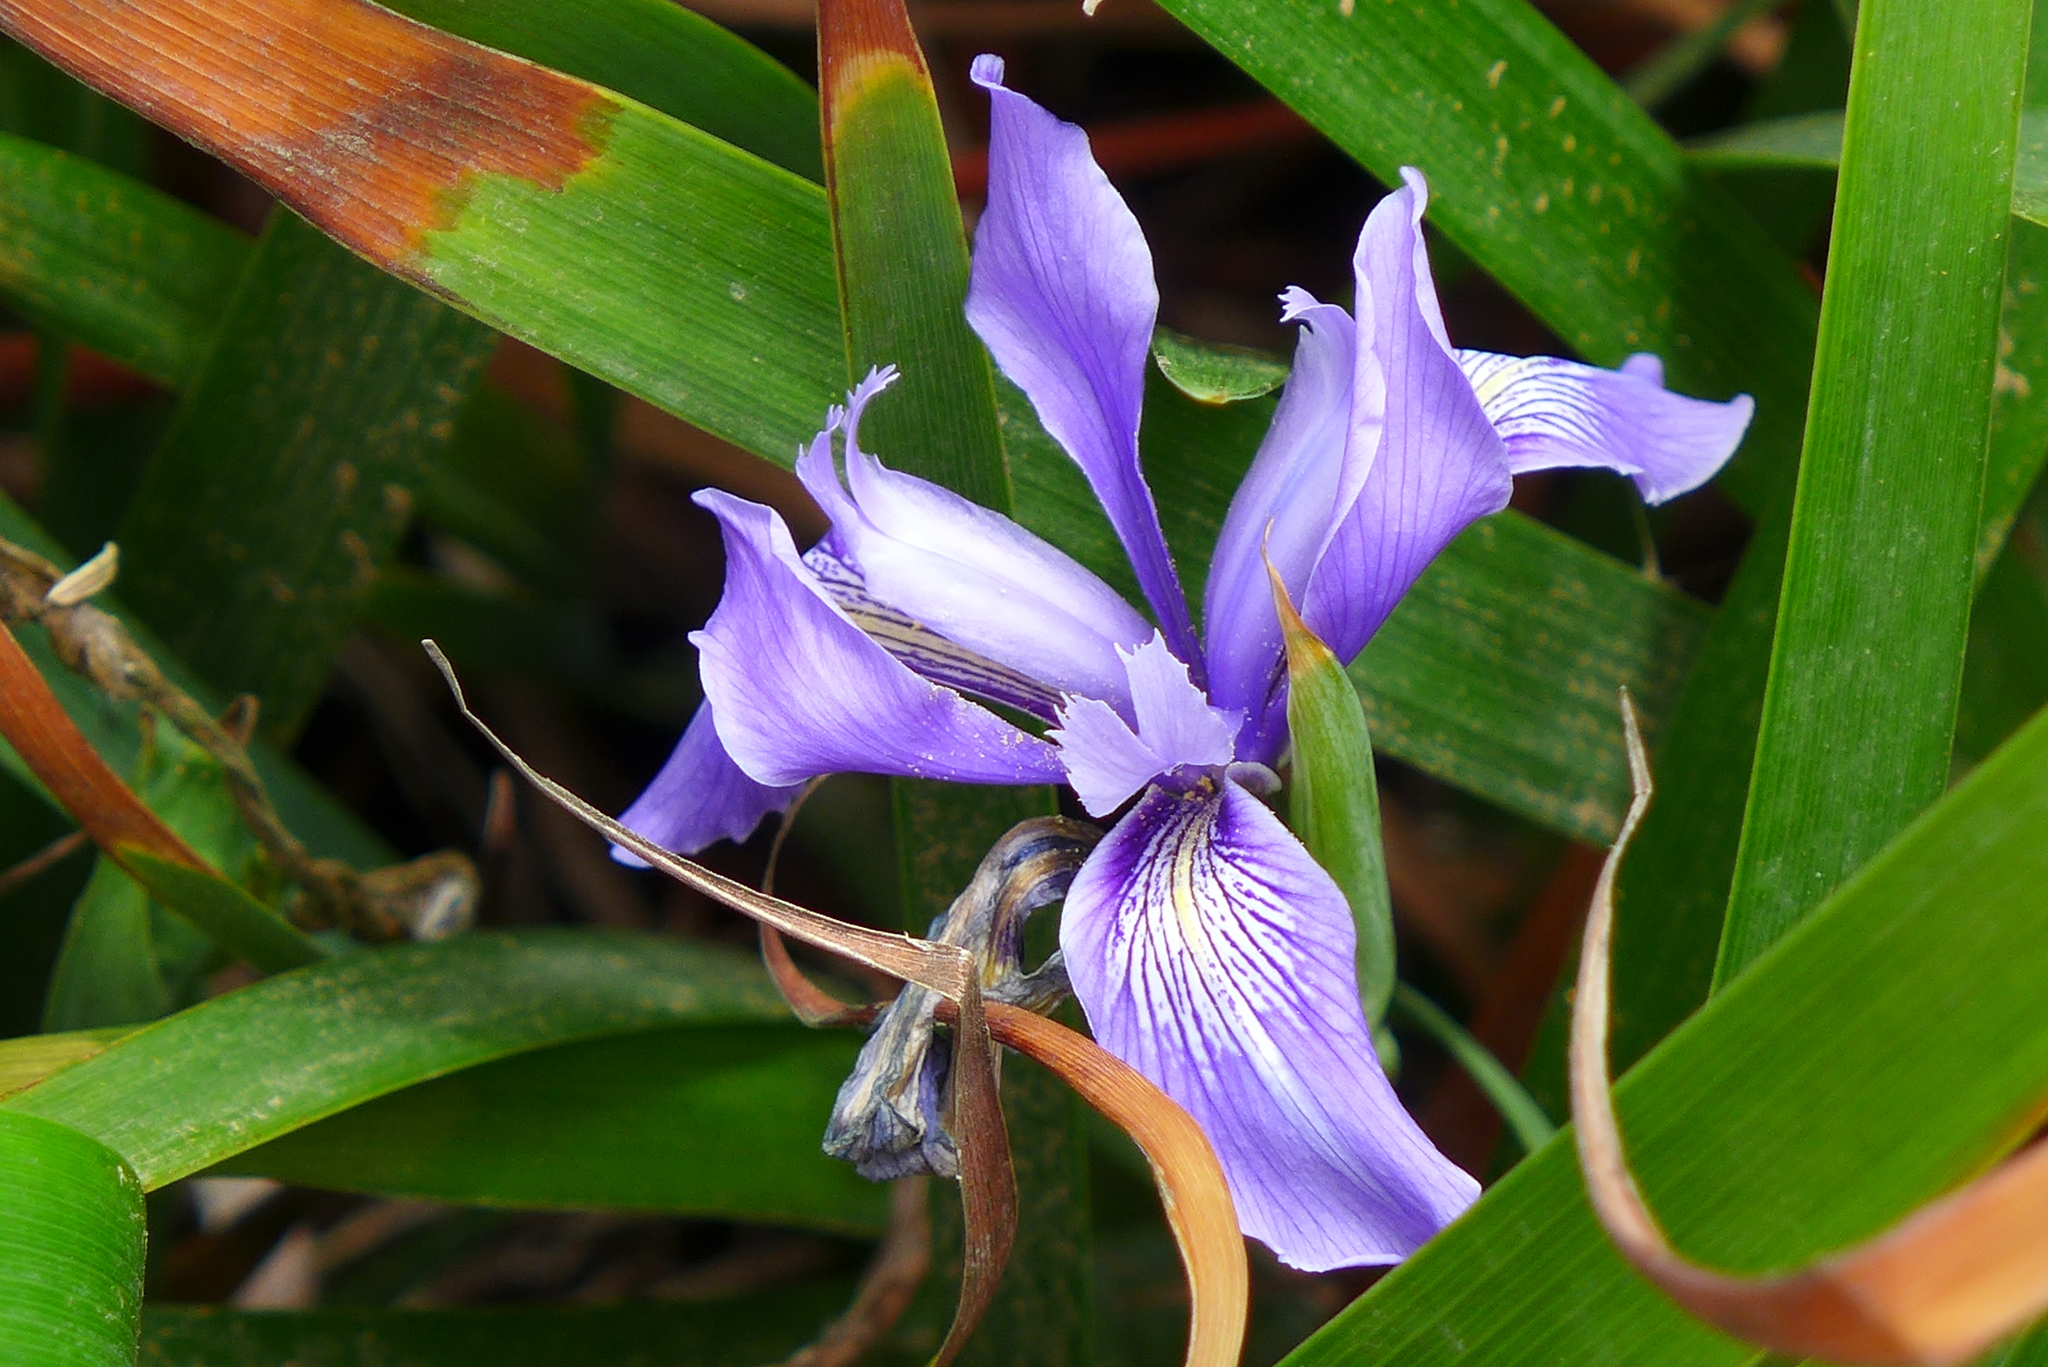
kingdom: Plantae
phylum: Tracheophyta
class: Liliopsida
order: Asparagales
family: Iridaceae
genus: Iris
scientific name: Iris douglasiana
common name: Marin iris
